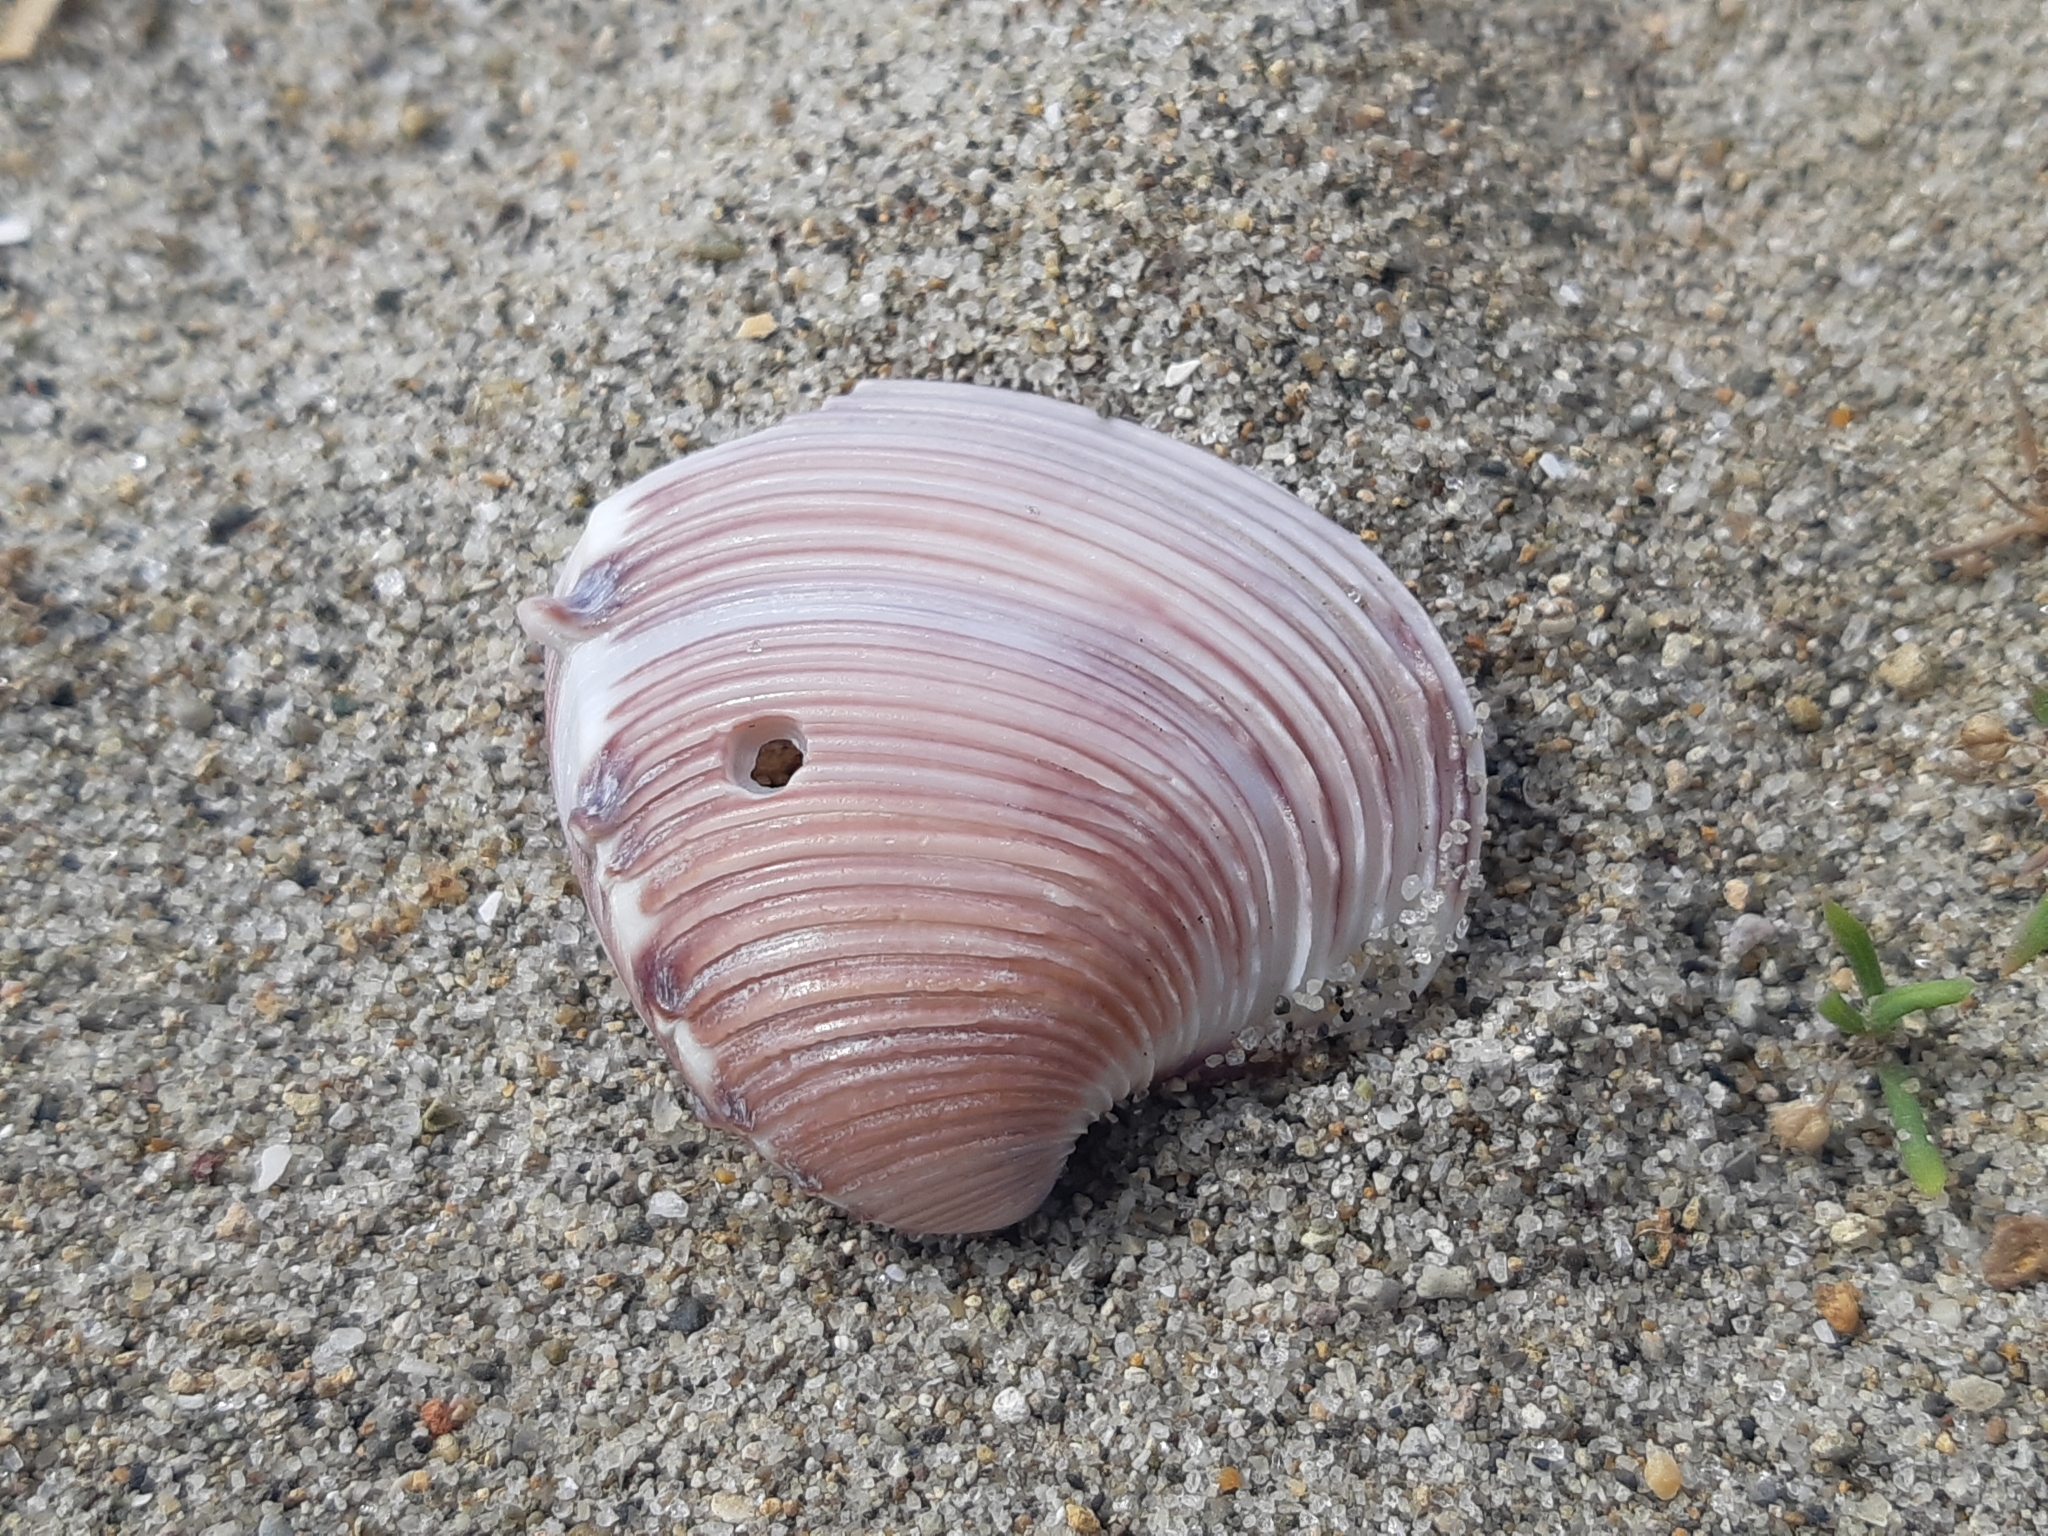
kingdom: Animalia
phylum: Mollusca
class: Bivalvia
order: Venerida
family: Veneridae
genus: Hysteroconcha
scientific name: Hysteroconcha lupanaria
